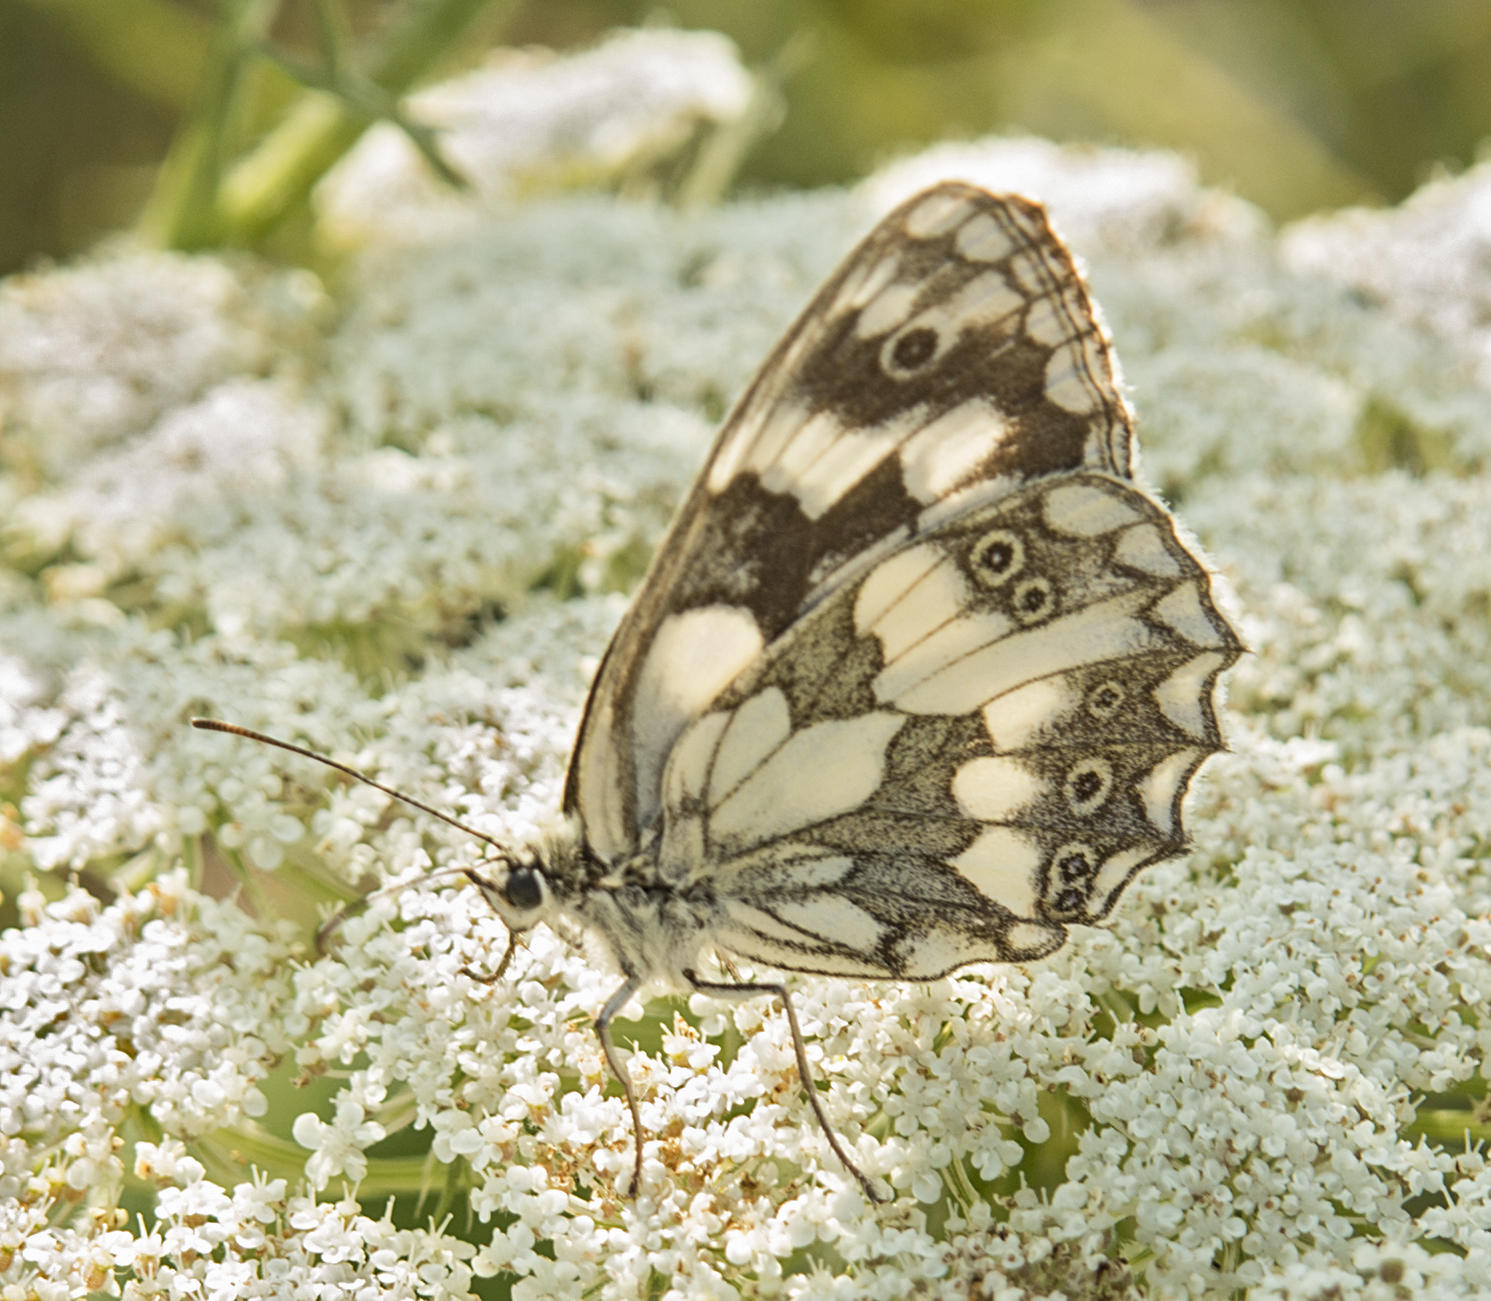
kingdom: Animalia
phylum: Arthropoda
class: Insecta
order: Lepidoptera
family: Nymphalidae
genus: Melanargia
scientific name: Melanargia galathea
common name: Marbled white
